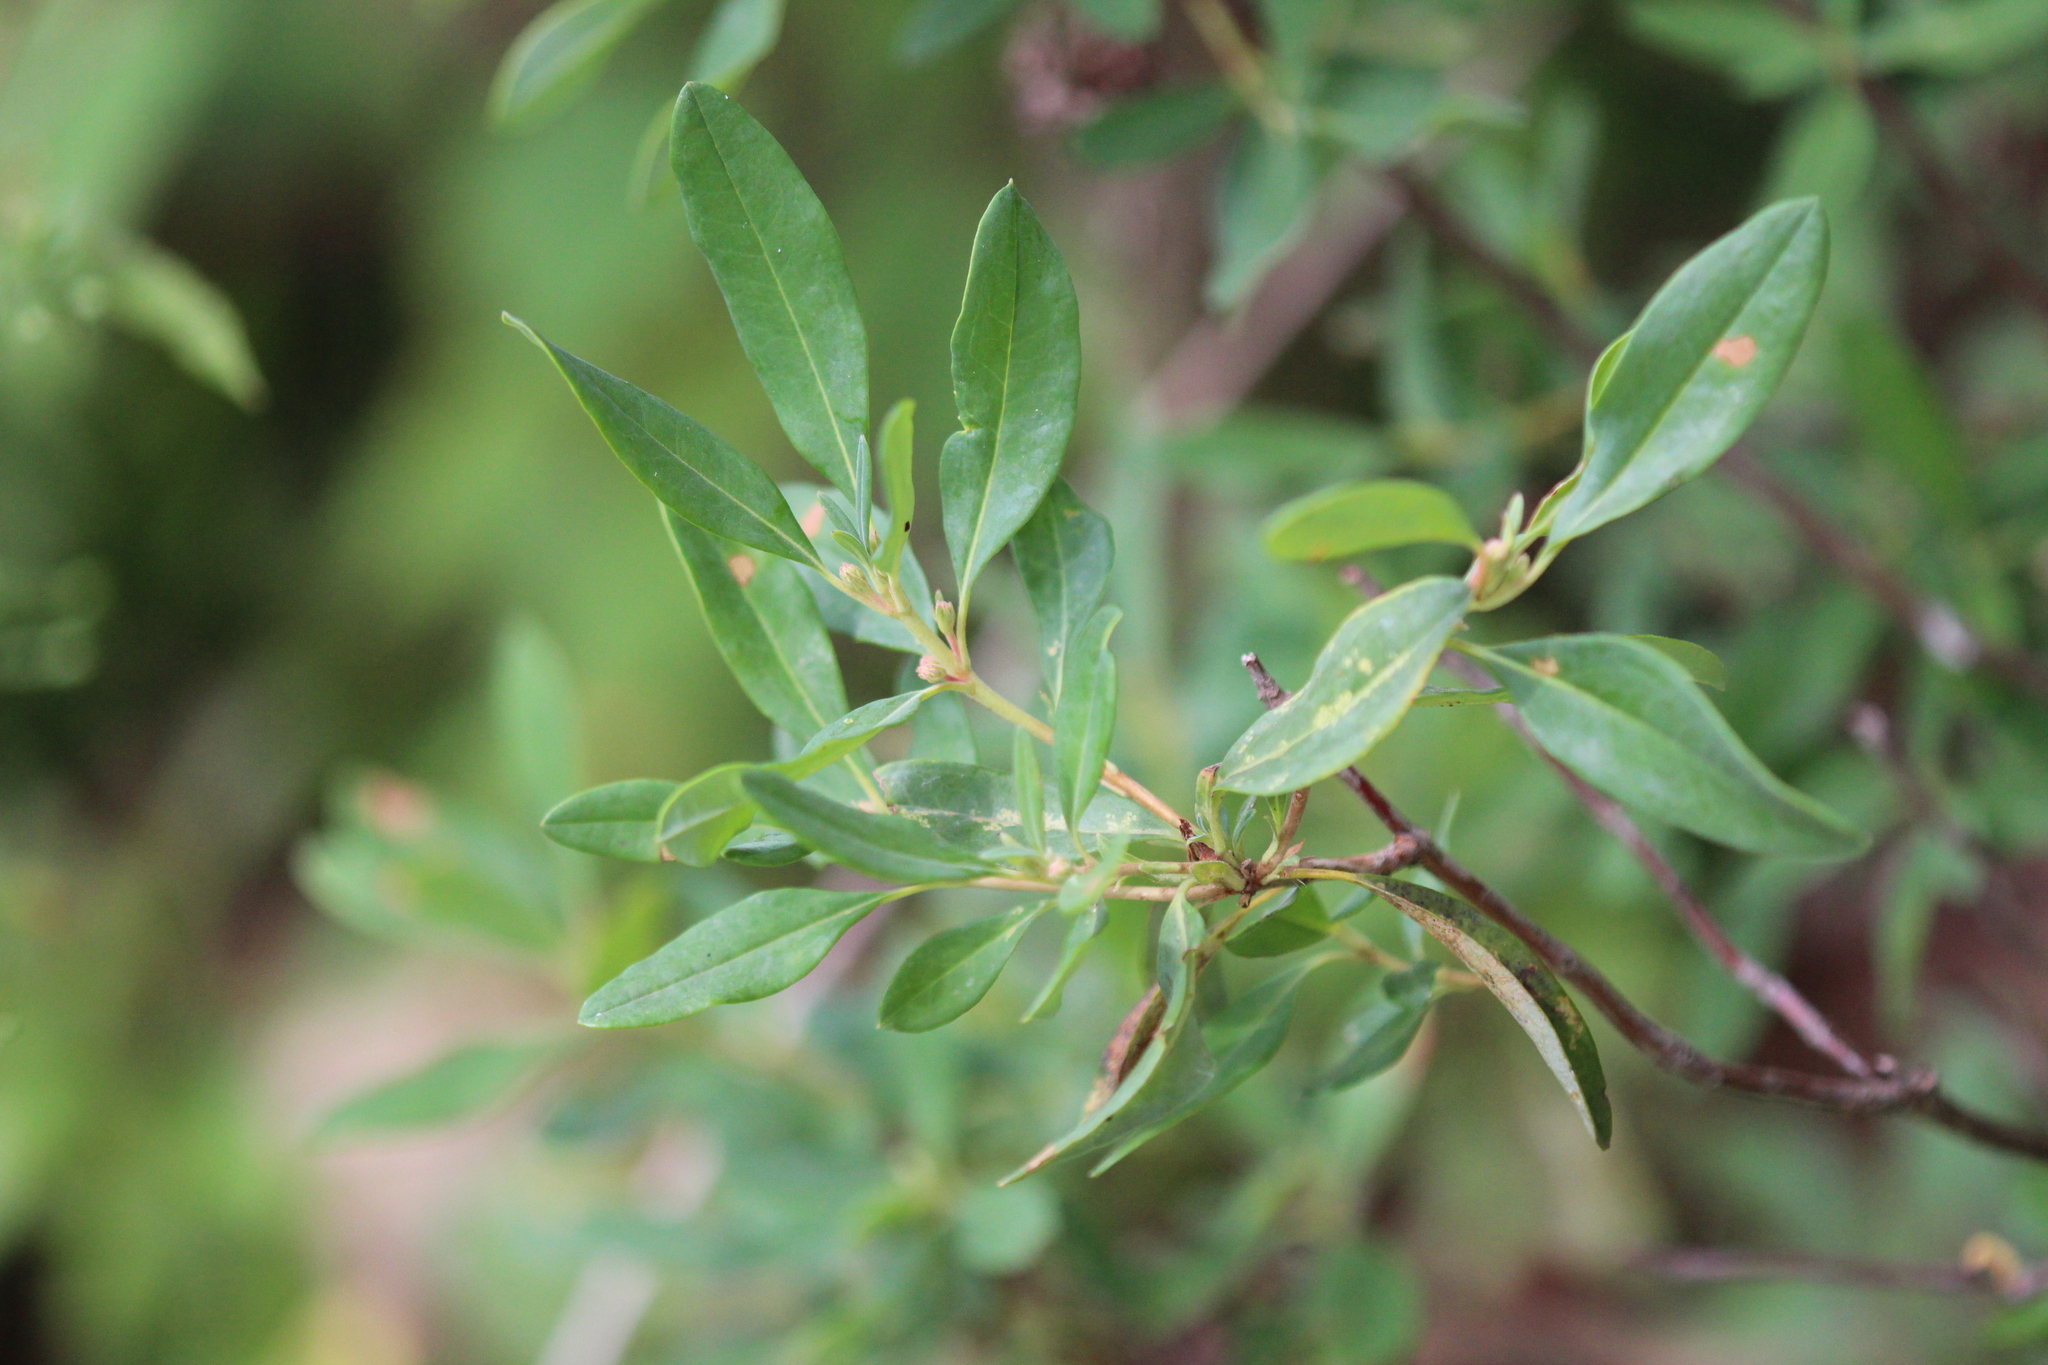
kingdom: Plantae
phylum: Tracheophyta
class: Magnoliopsida
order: Ericales
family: Ericaceae
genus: Kalmia
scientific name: Kalmia angustifolia
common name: Sheep-laurel
